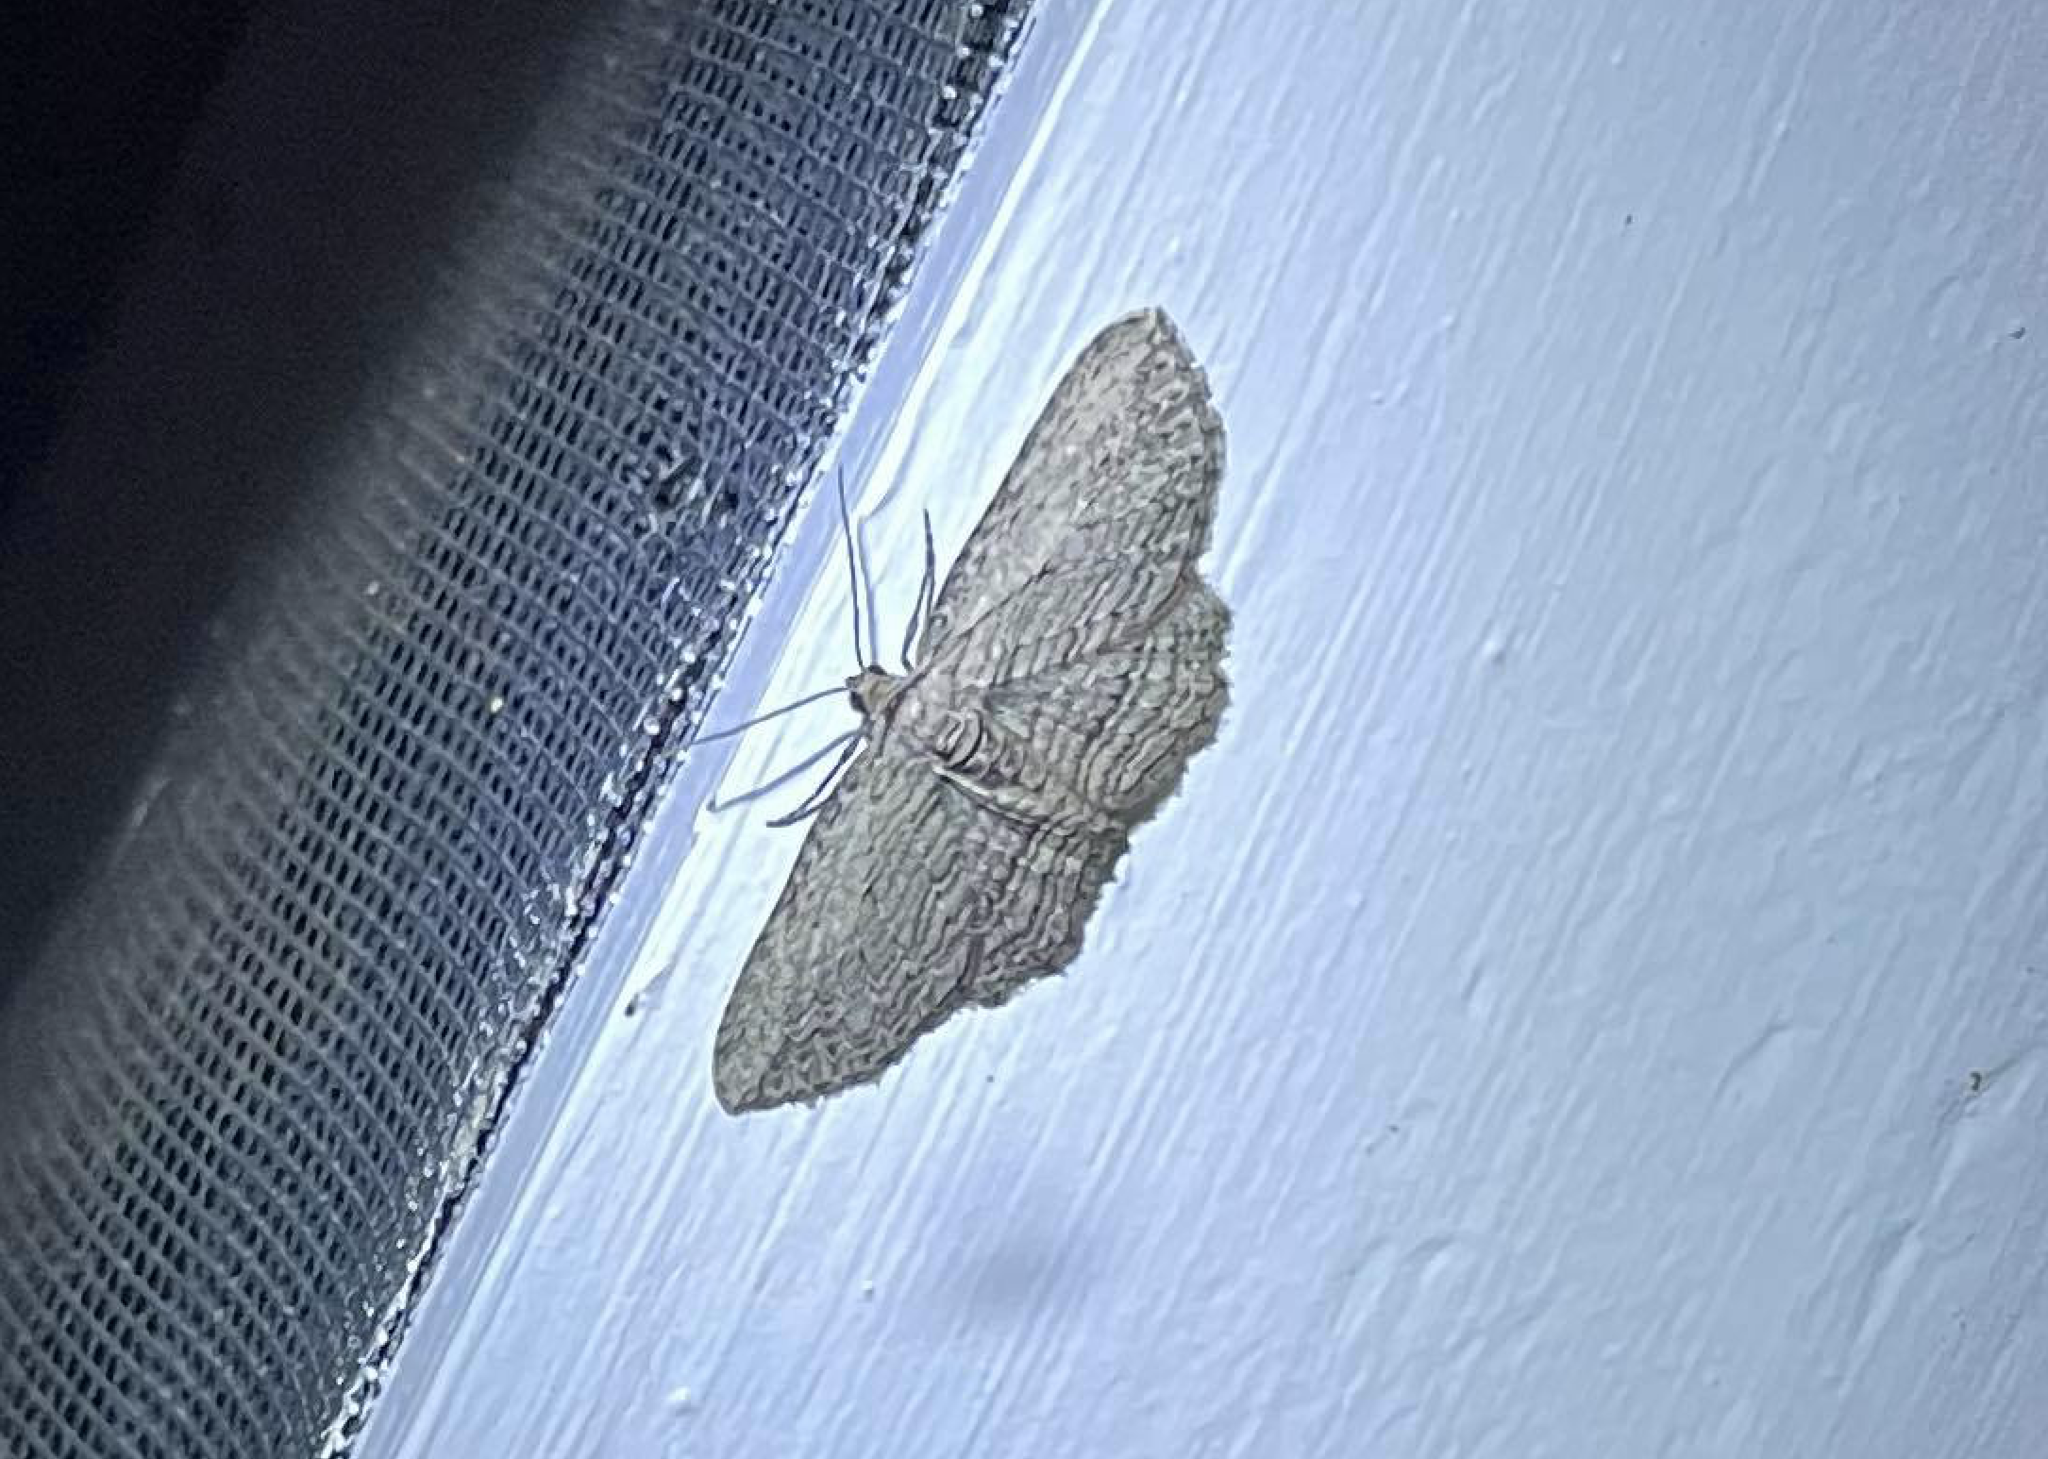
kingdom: Animalia
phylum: Arthropoda
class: Insecta
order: Lepidoptera
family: Geometridae
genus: Horisme
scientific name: Horisme intestinata
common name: Brown bark carpet
